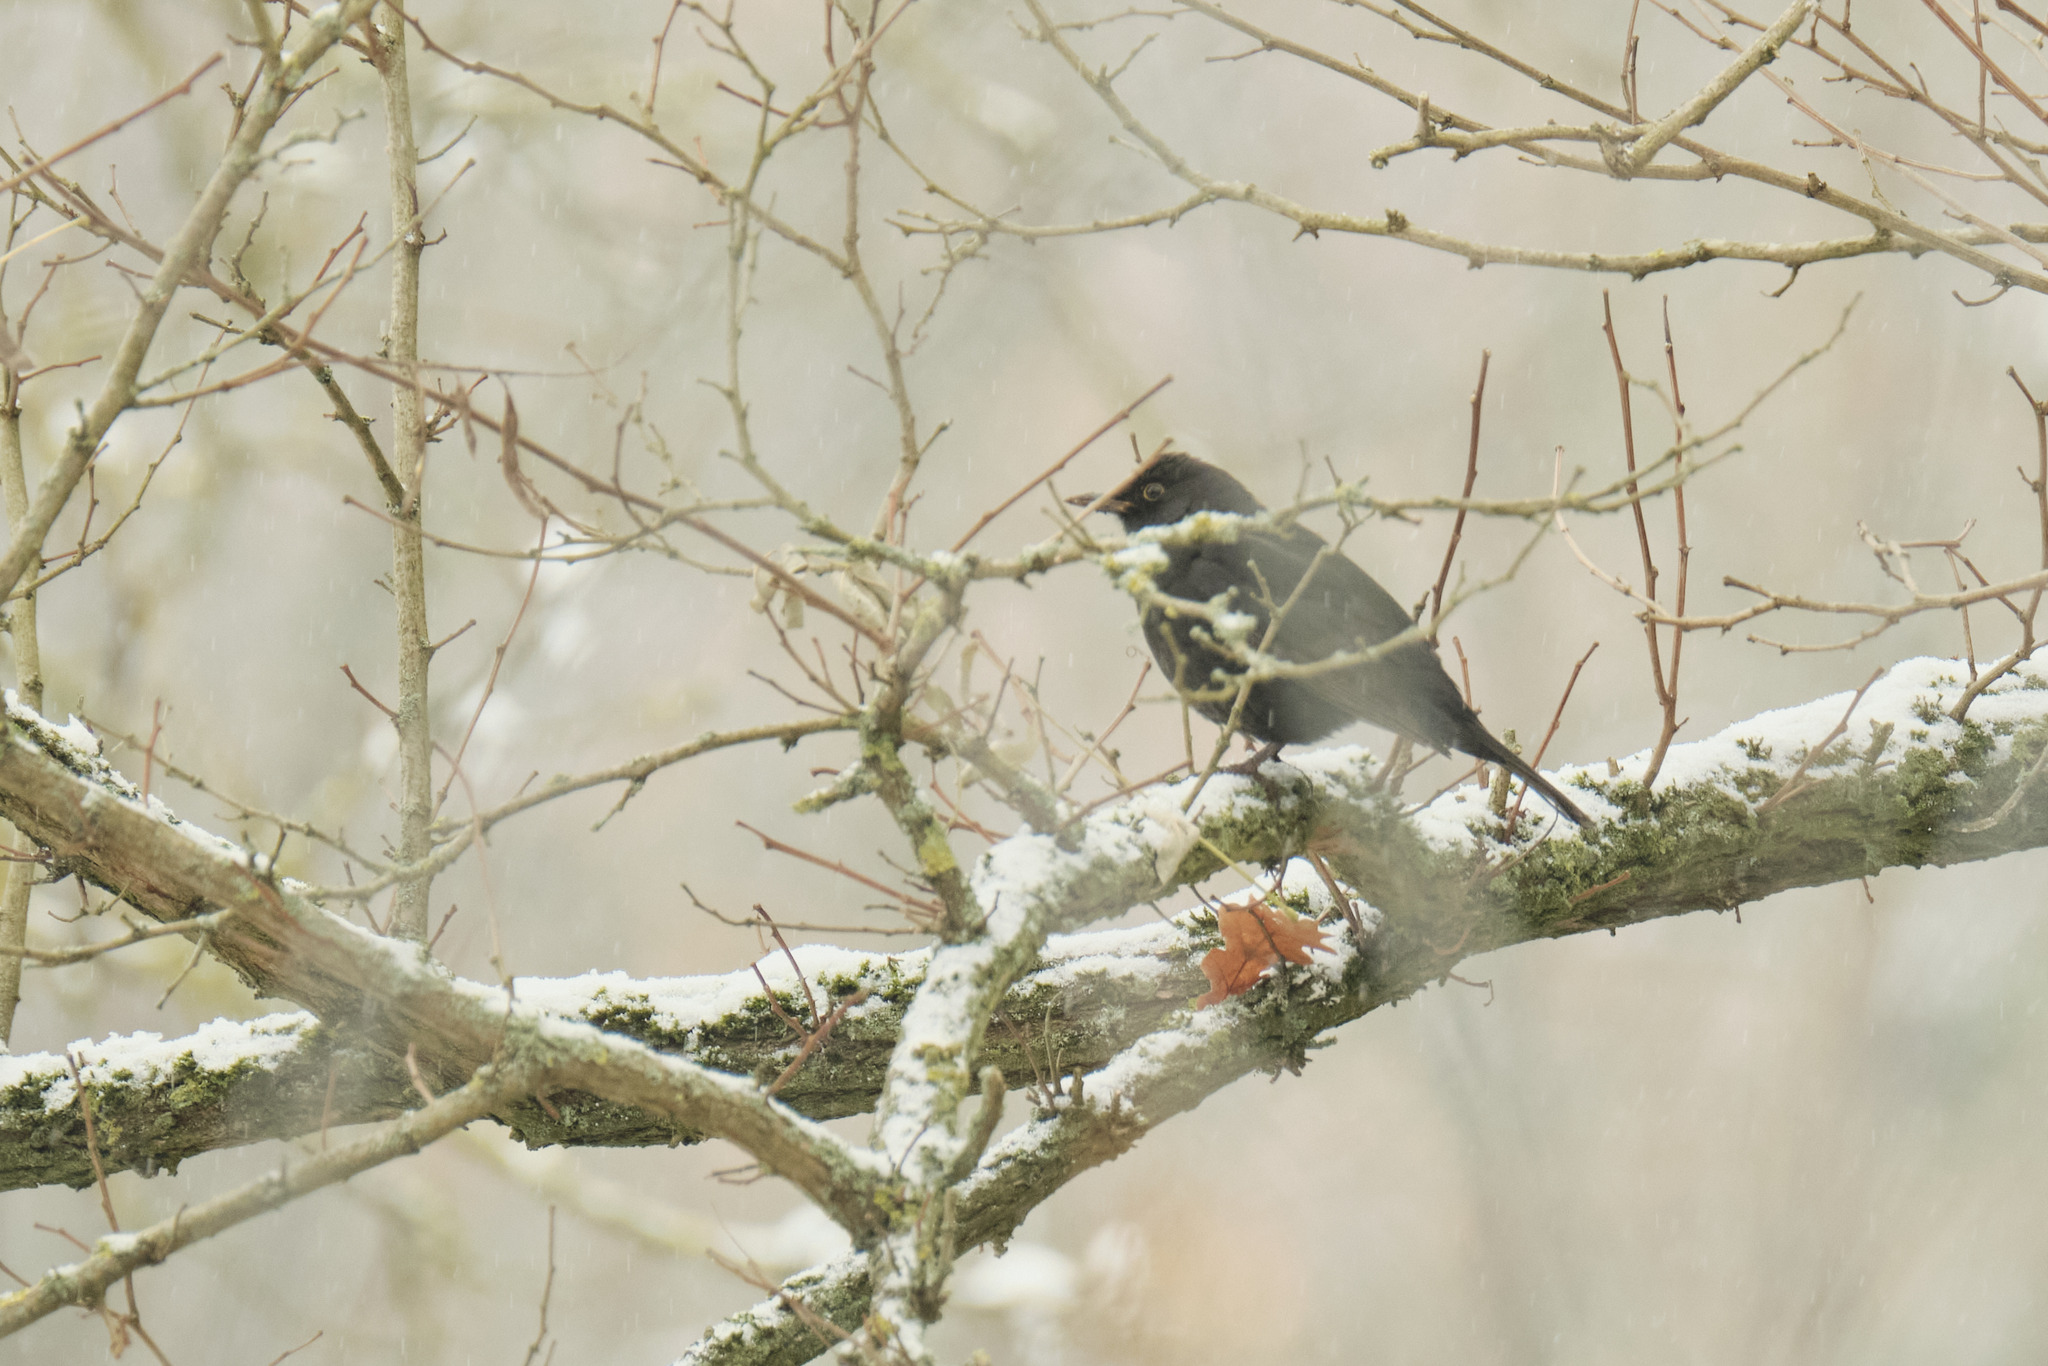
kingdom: Animalia
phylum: Chordata
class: Aves
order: Passeriformes
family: Turdidae
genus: Turdus
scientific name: Turdus merula
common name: Common blackbird
